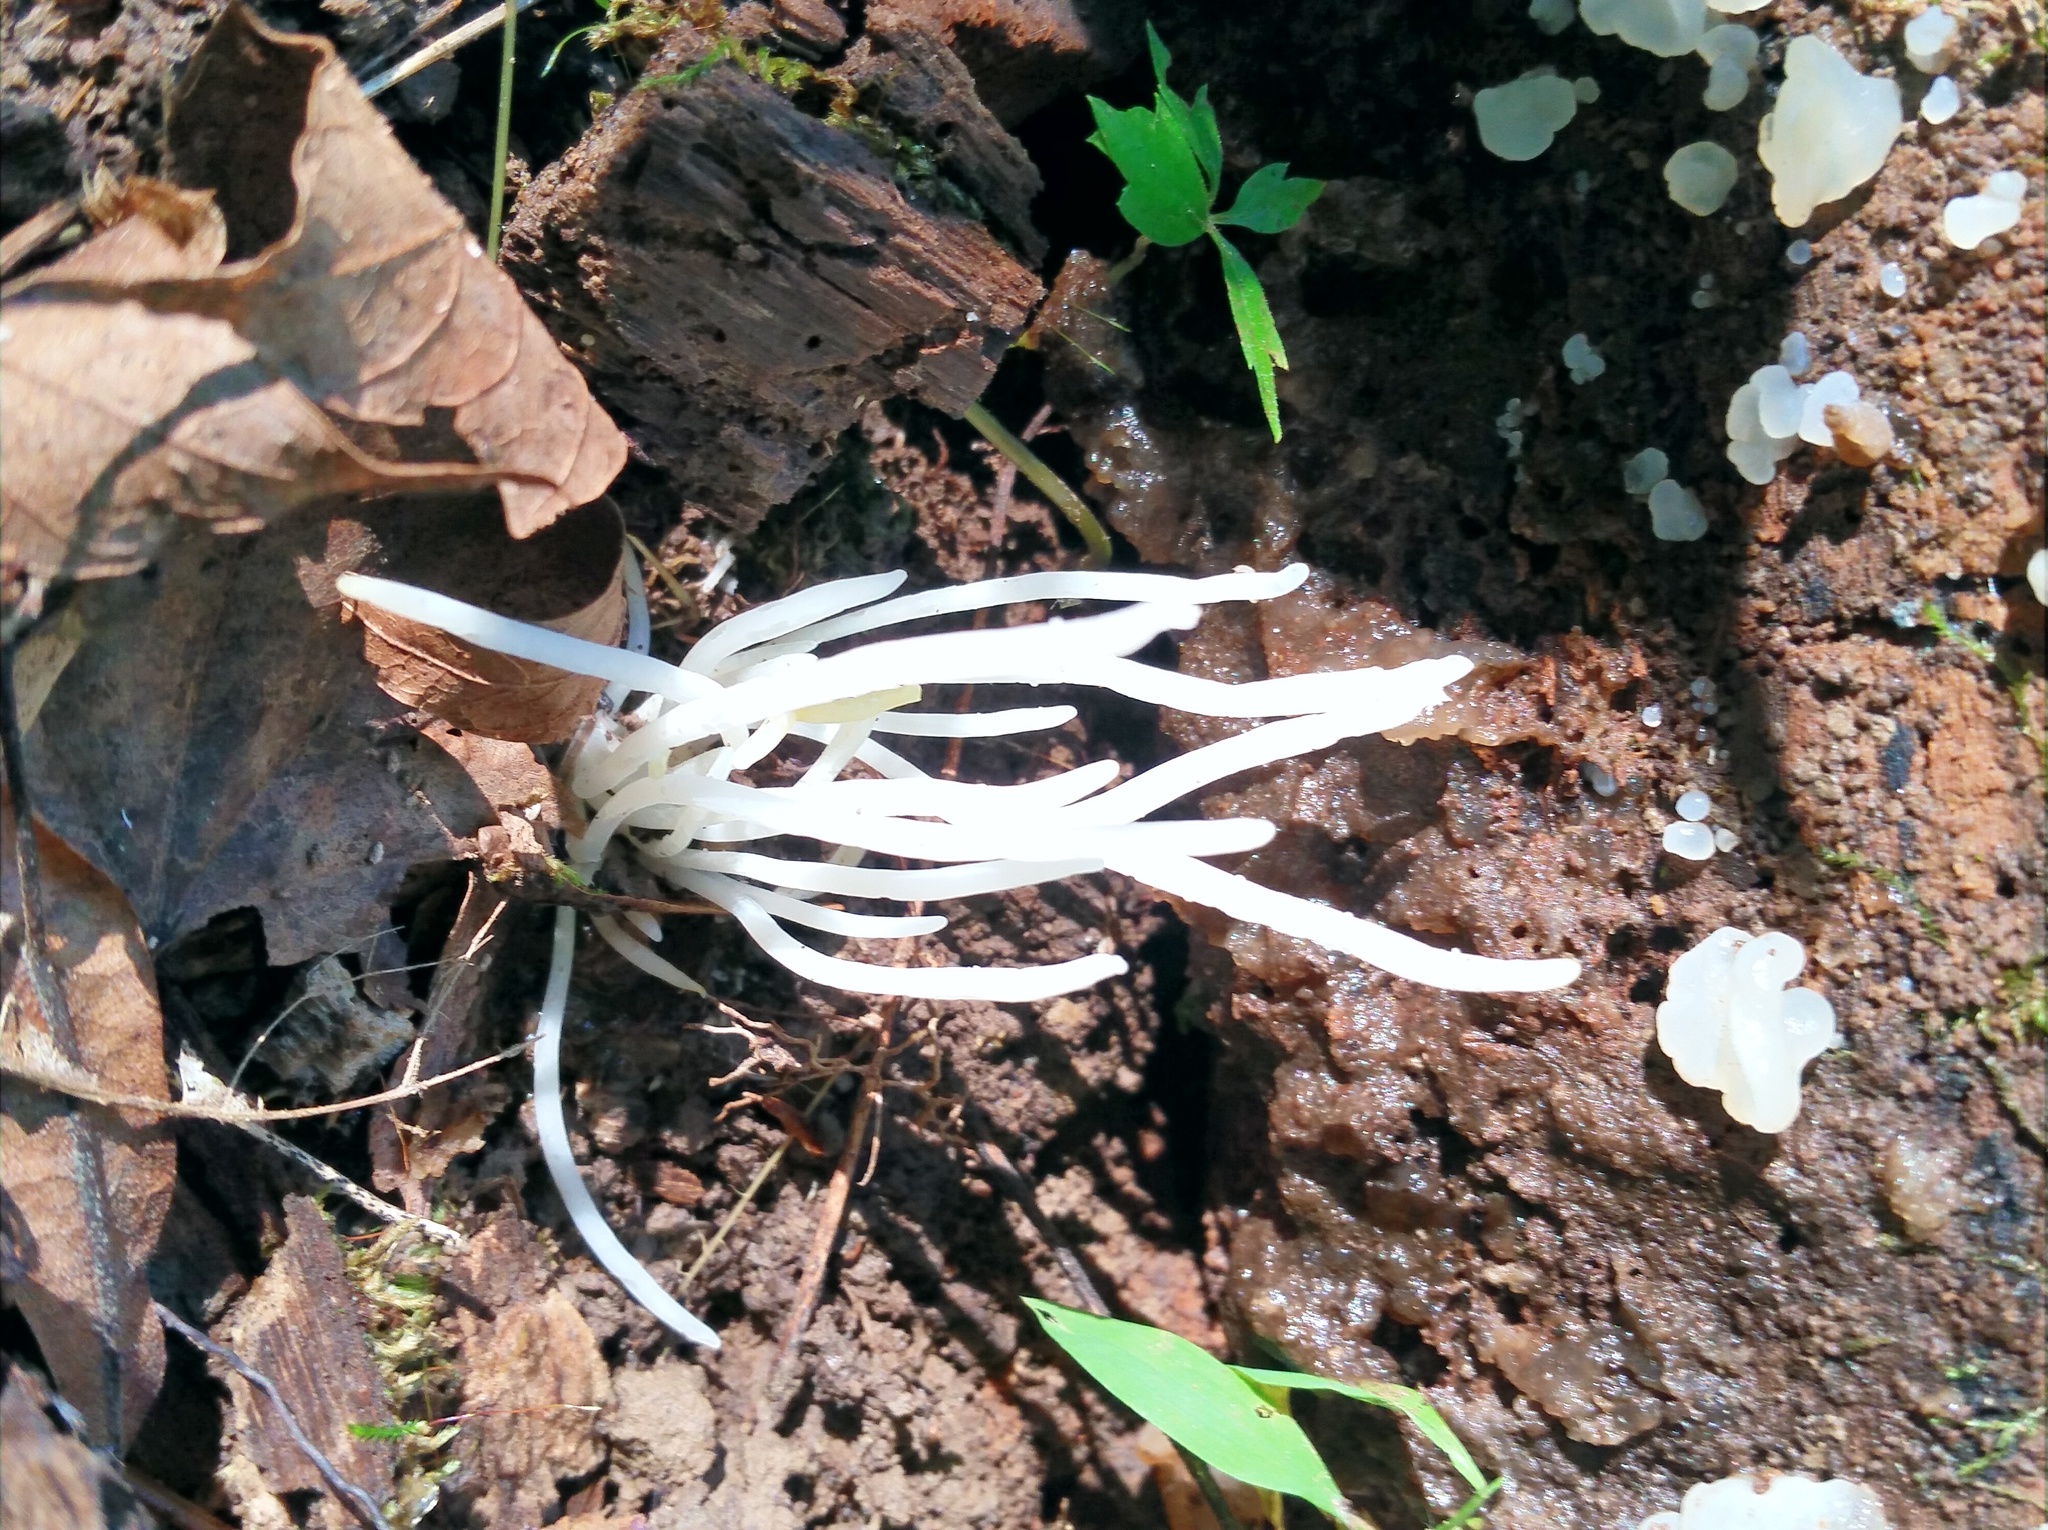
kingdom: Fungi
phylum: Basidiomycota
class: Agaricomycetes
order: Agaricales
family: Clavariaceae
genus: Clavaria
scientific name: Clavaria fragilis
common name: White spindles
